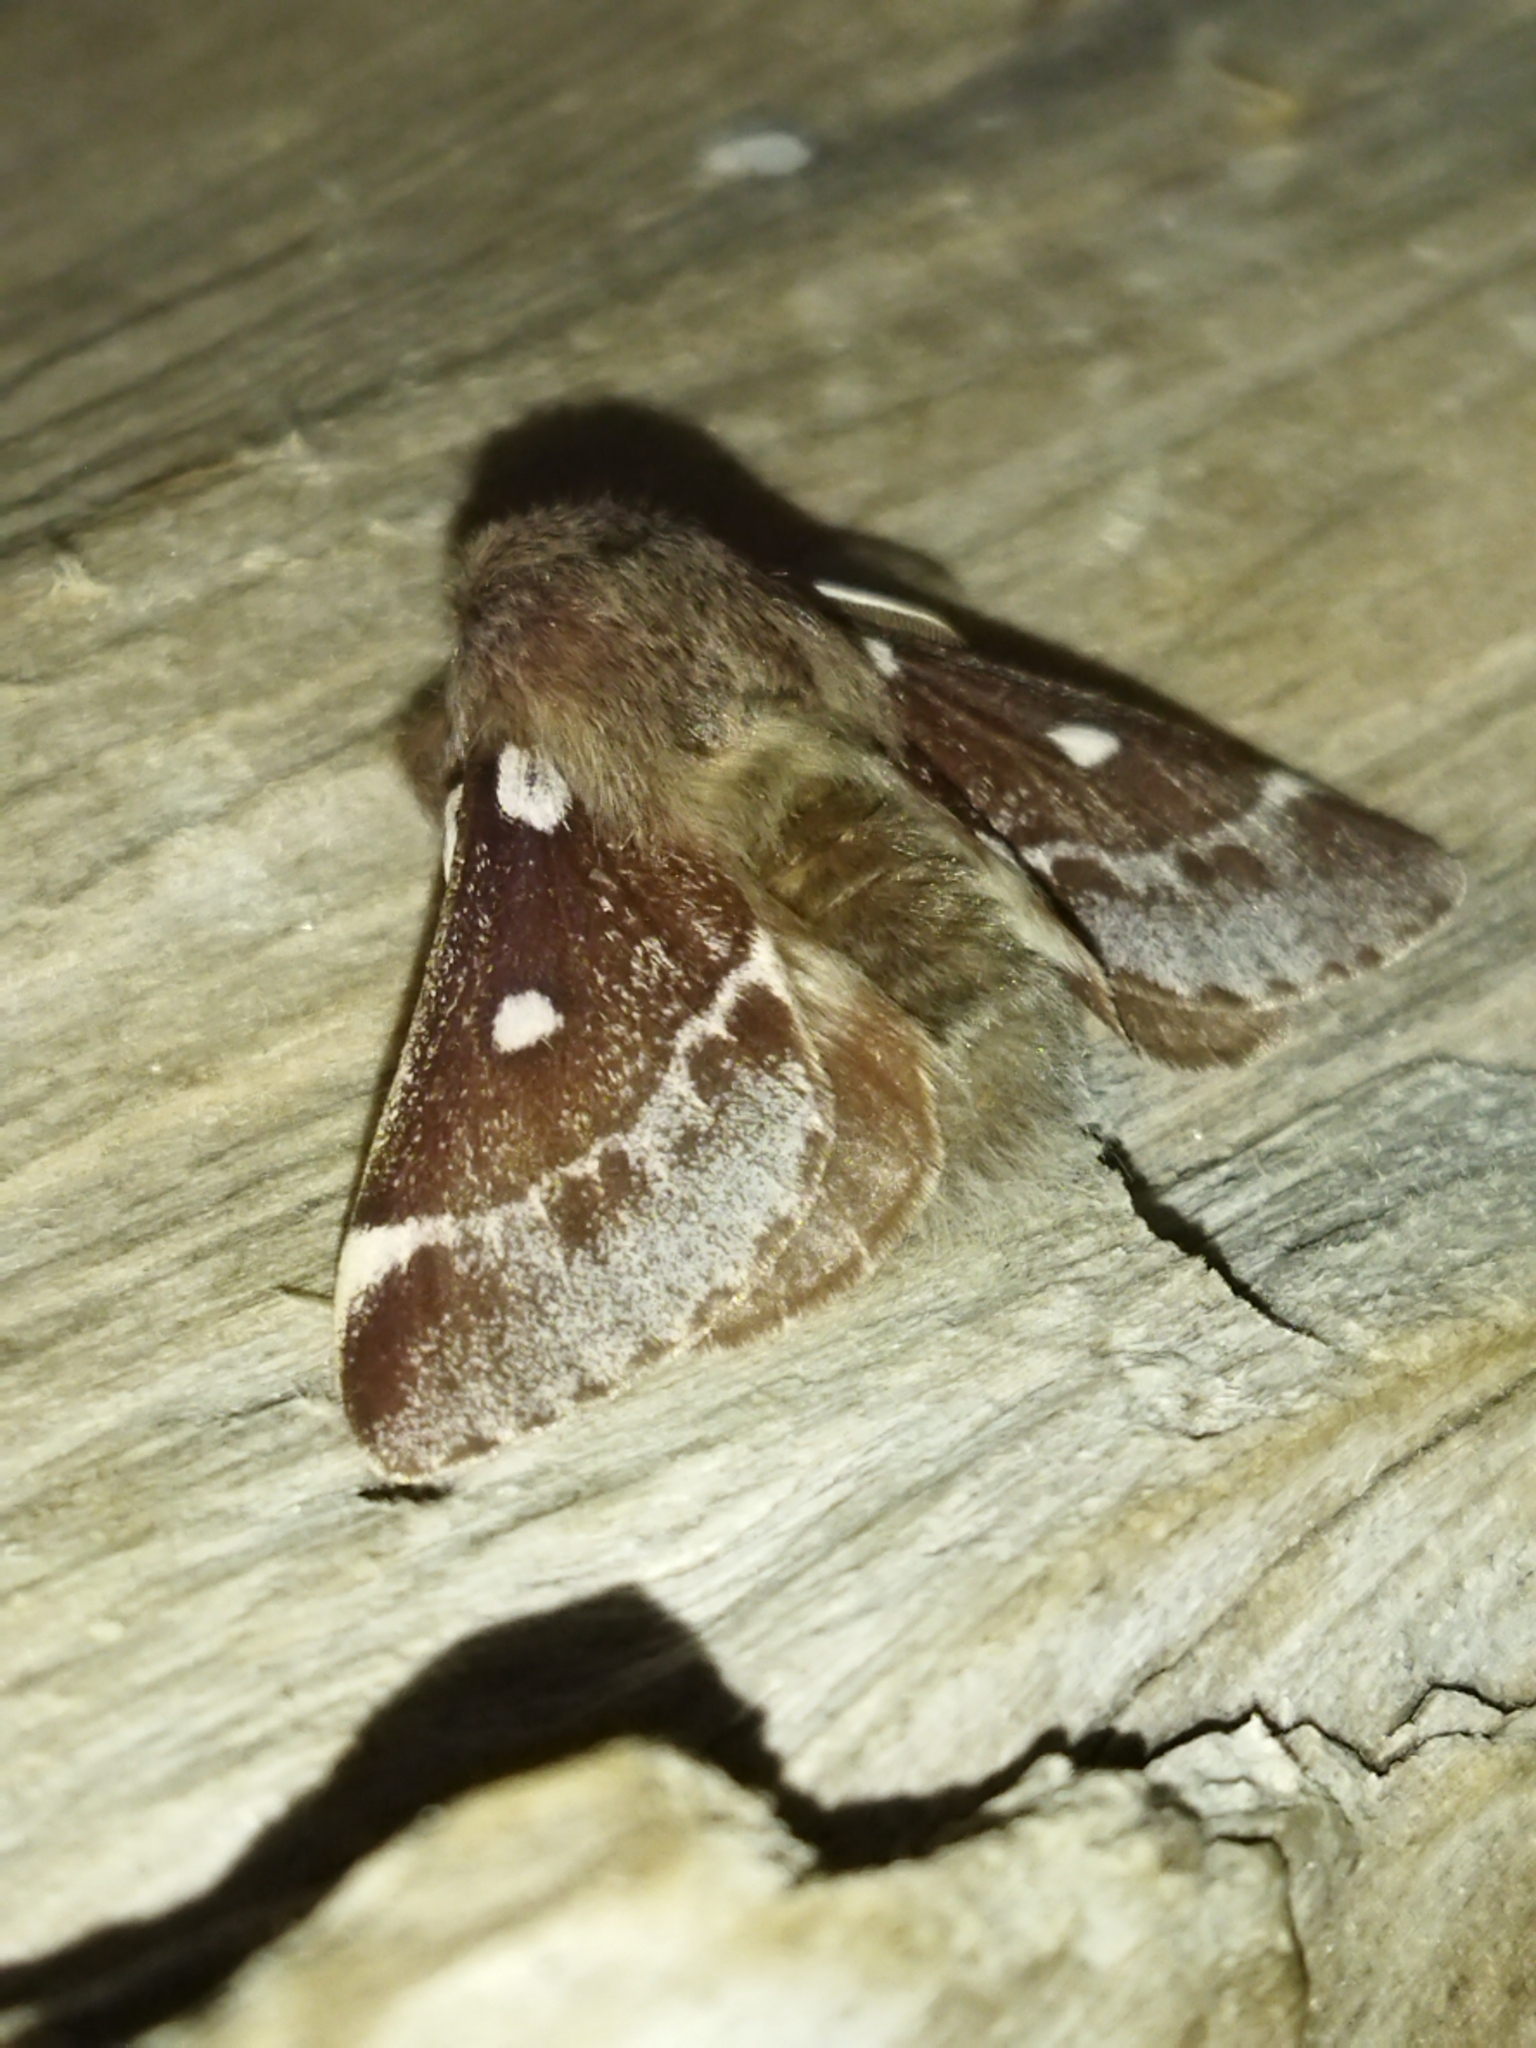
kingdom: Animalia
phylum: Arthropoda
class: Insecta
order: Lepidoptera
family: Lasiocampidae
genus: Eriogaster
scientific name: Eriogaster lanestris
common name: Small eggar
